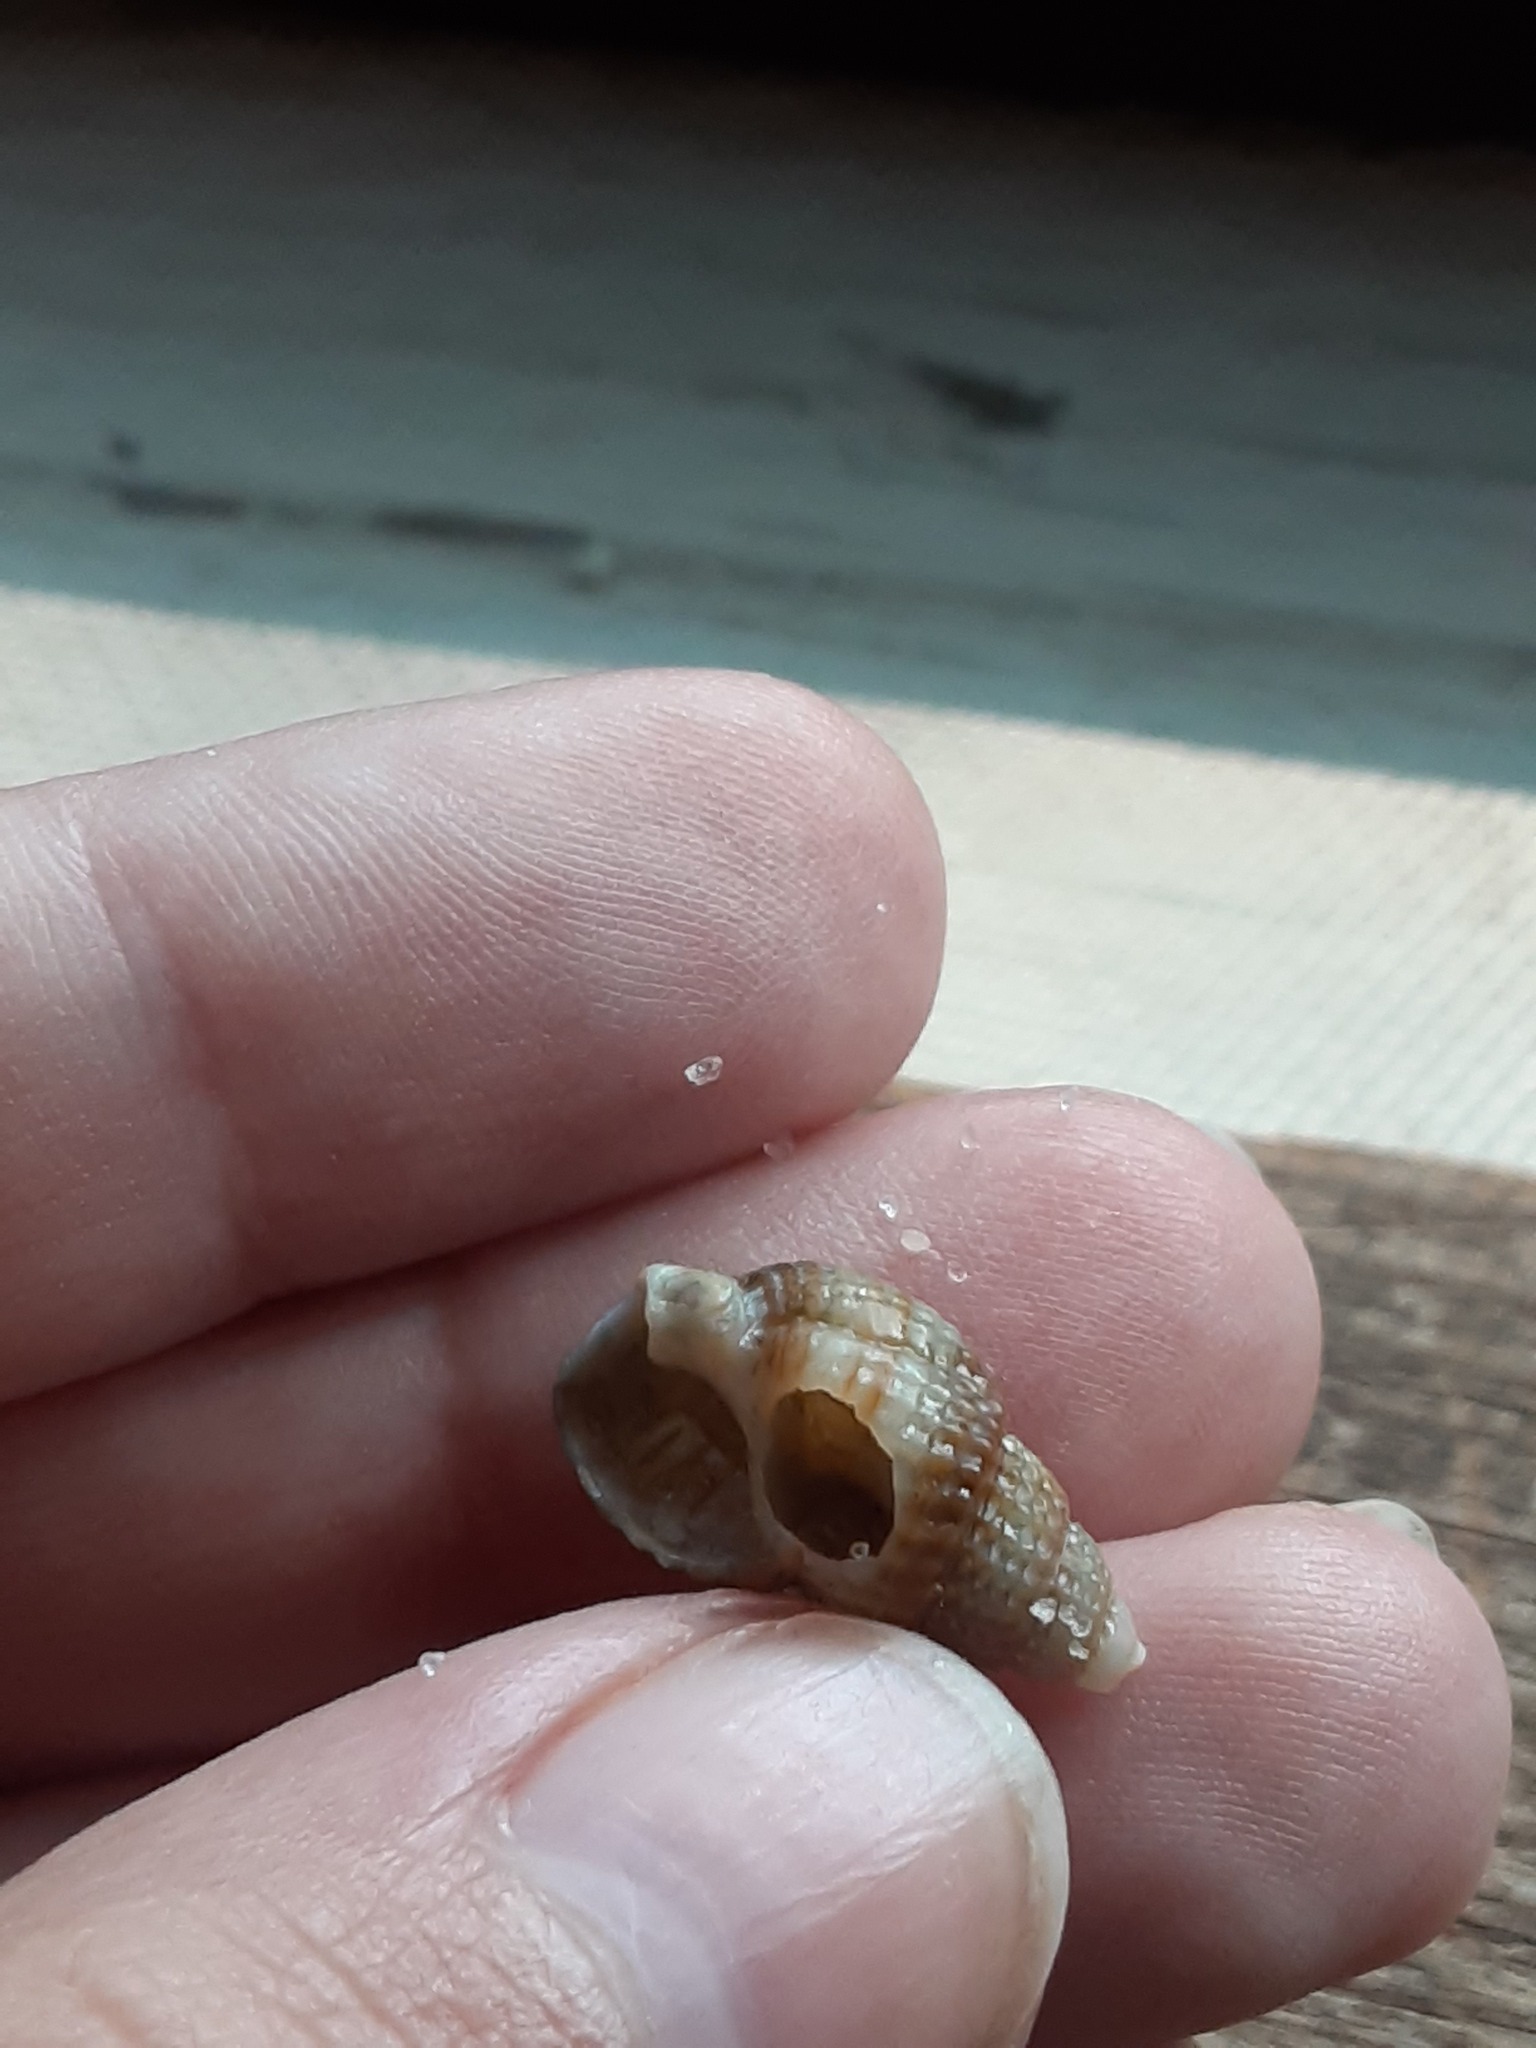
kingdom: Animalia
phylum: Mollusca
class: Gastropoda
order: Neogastropoda
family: Nassariidae
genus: Ilyanassa
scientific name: Ilyanassa trivittata
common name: Three-line mudsnail
